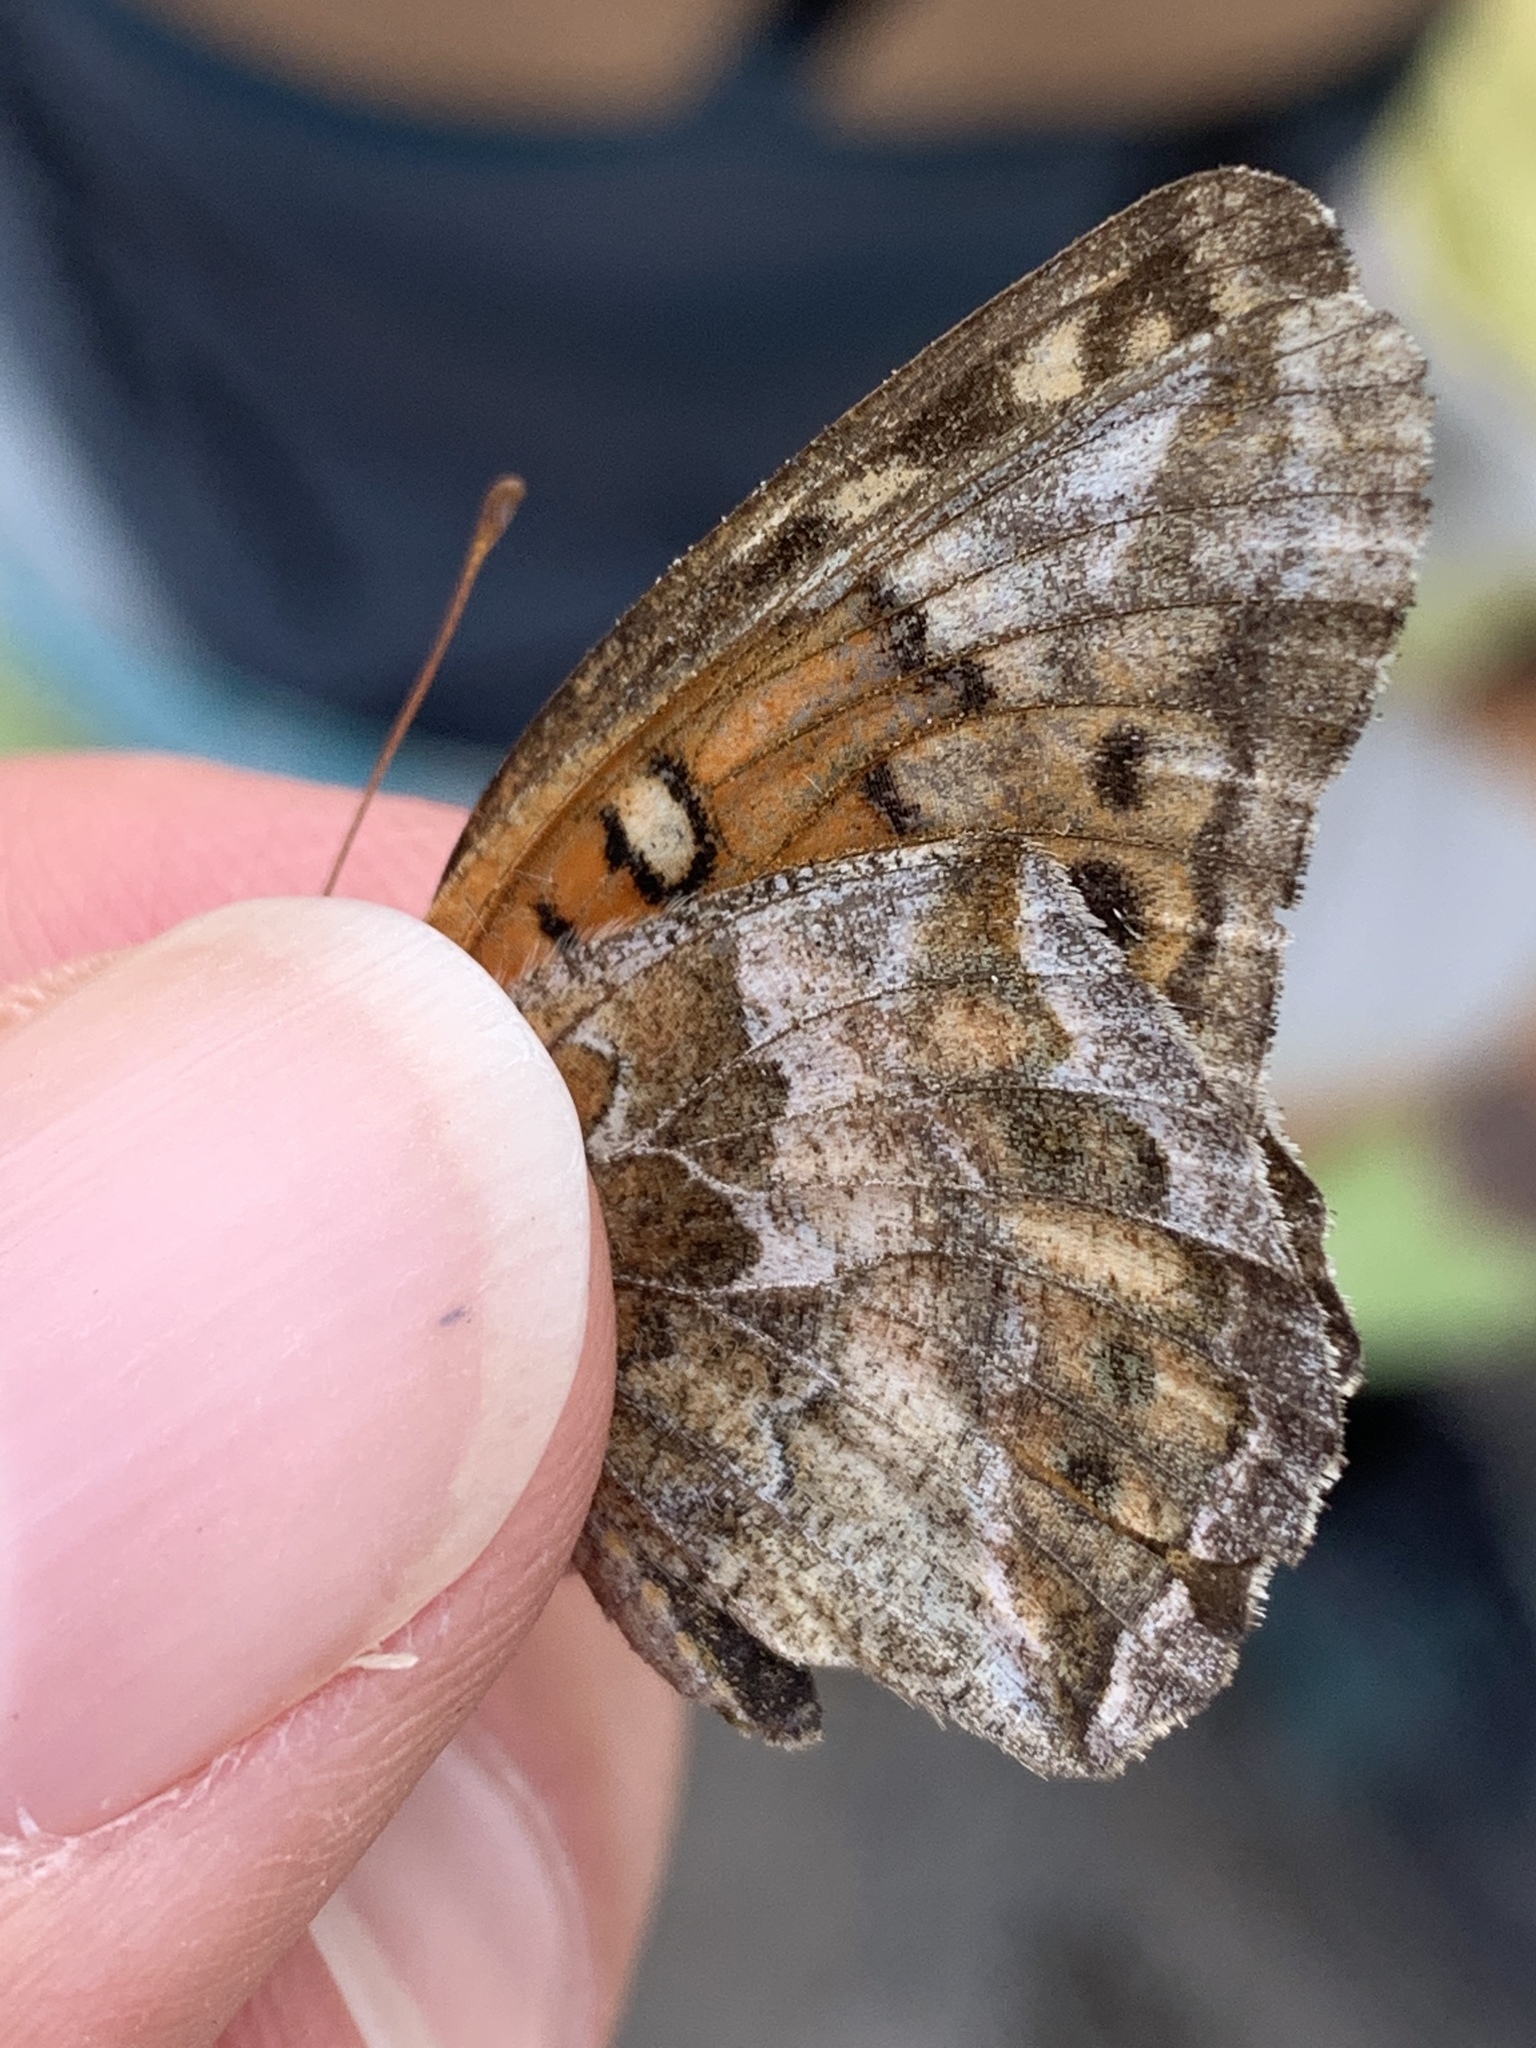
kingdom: Animalia
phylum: Arthropoda
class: Insecta
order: Lepidoptera
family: Nymphalidae
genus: Euptoieta
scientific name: Euptoieta claudia
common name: Variegated fritillary
